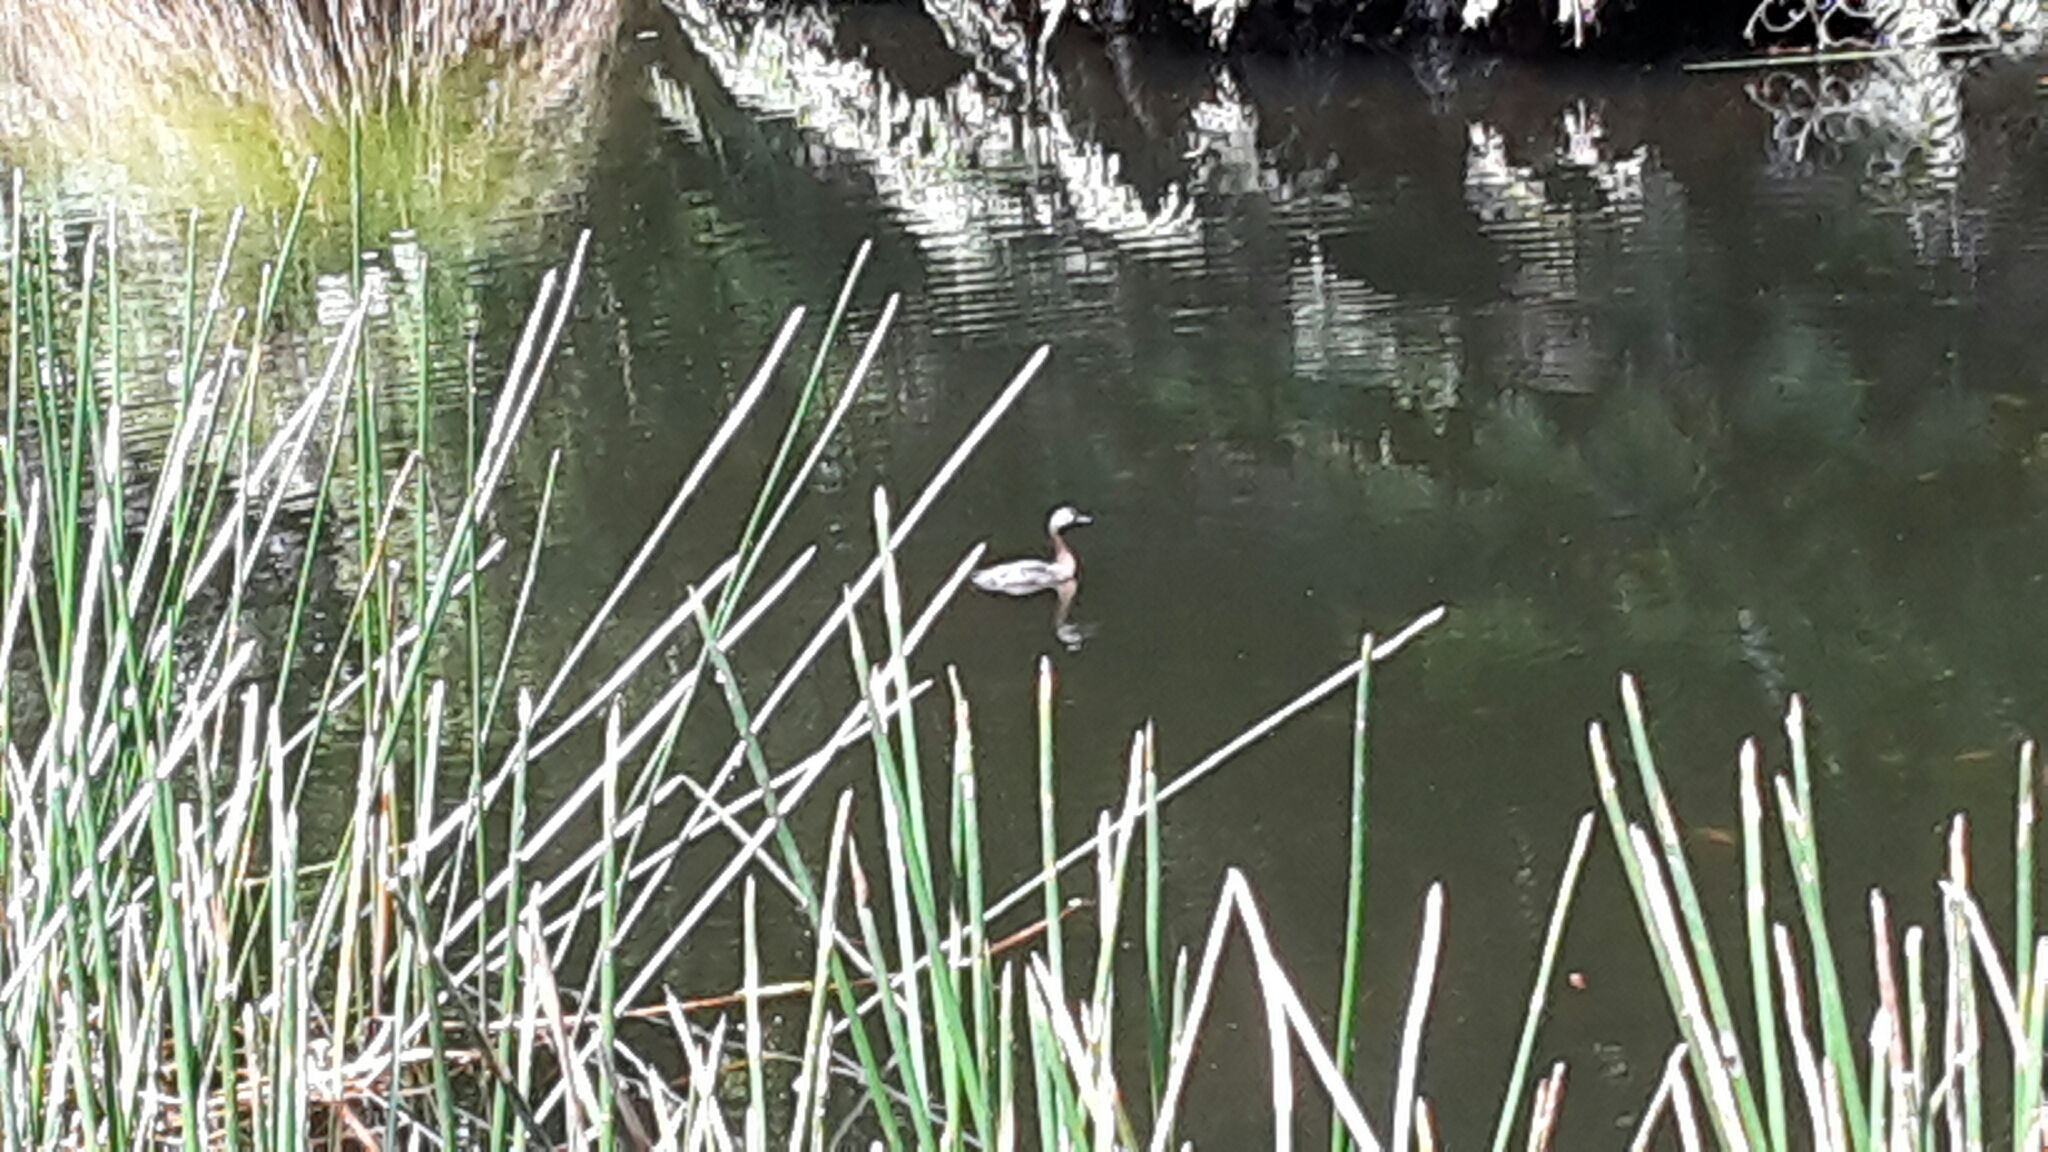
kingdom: Animalia
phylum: Chordata
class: Aves
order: Podicipediformes
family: Podicipedidae
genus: Poliocephalus
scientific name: Poliocephalus rufopectus
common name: New zealand grebe
